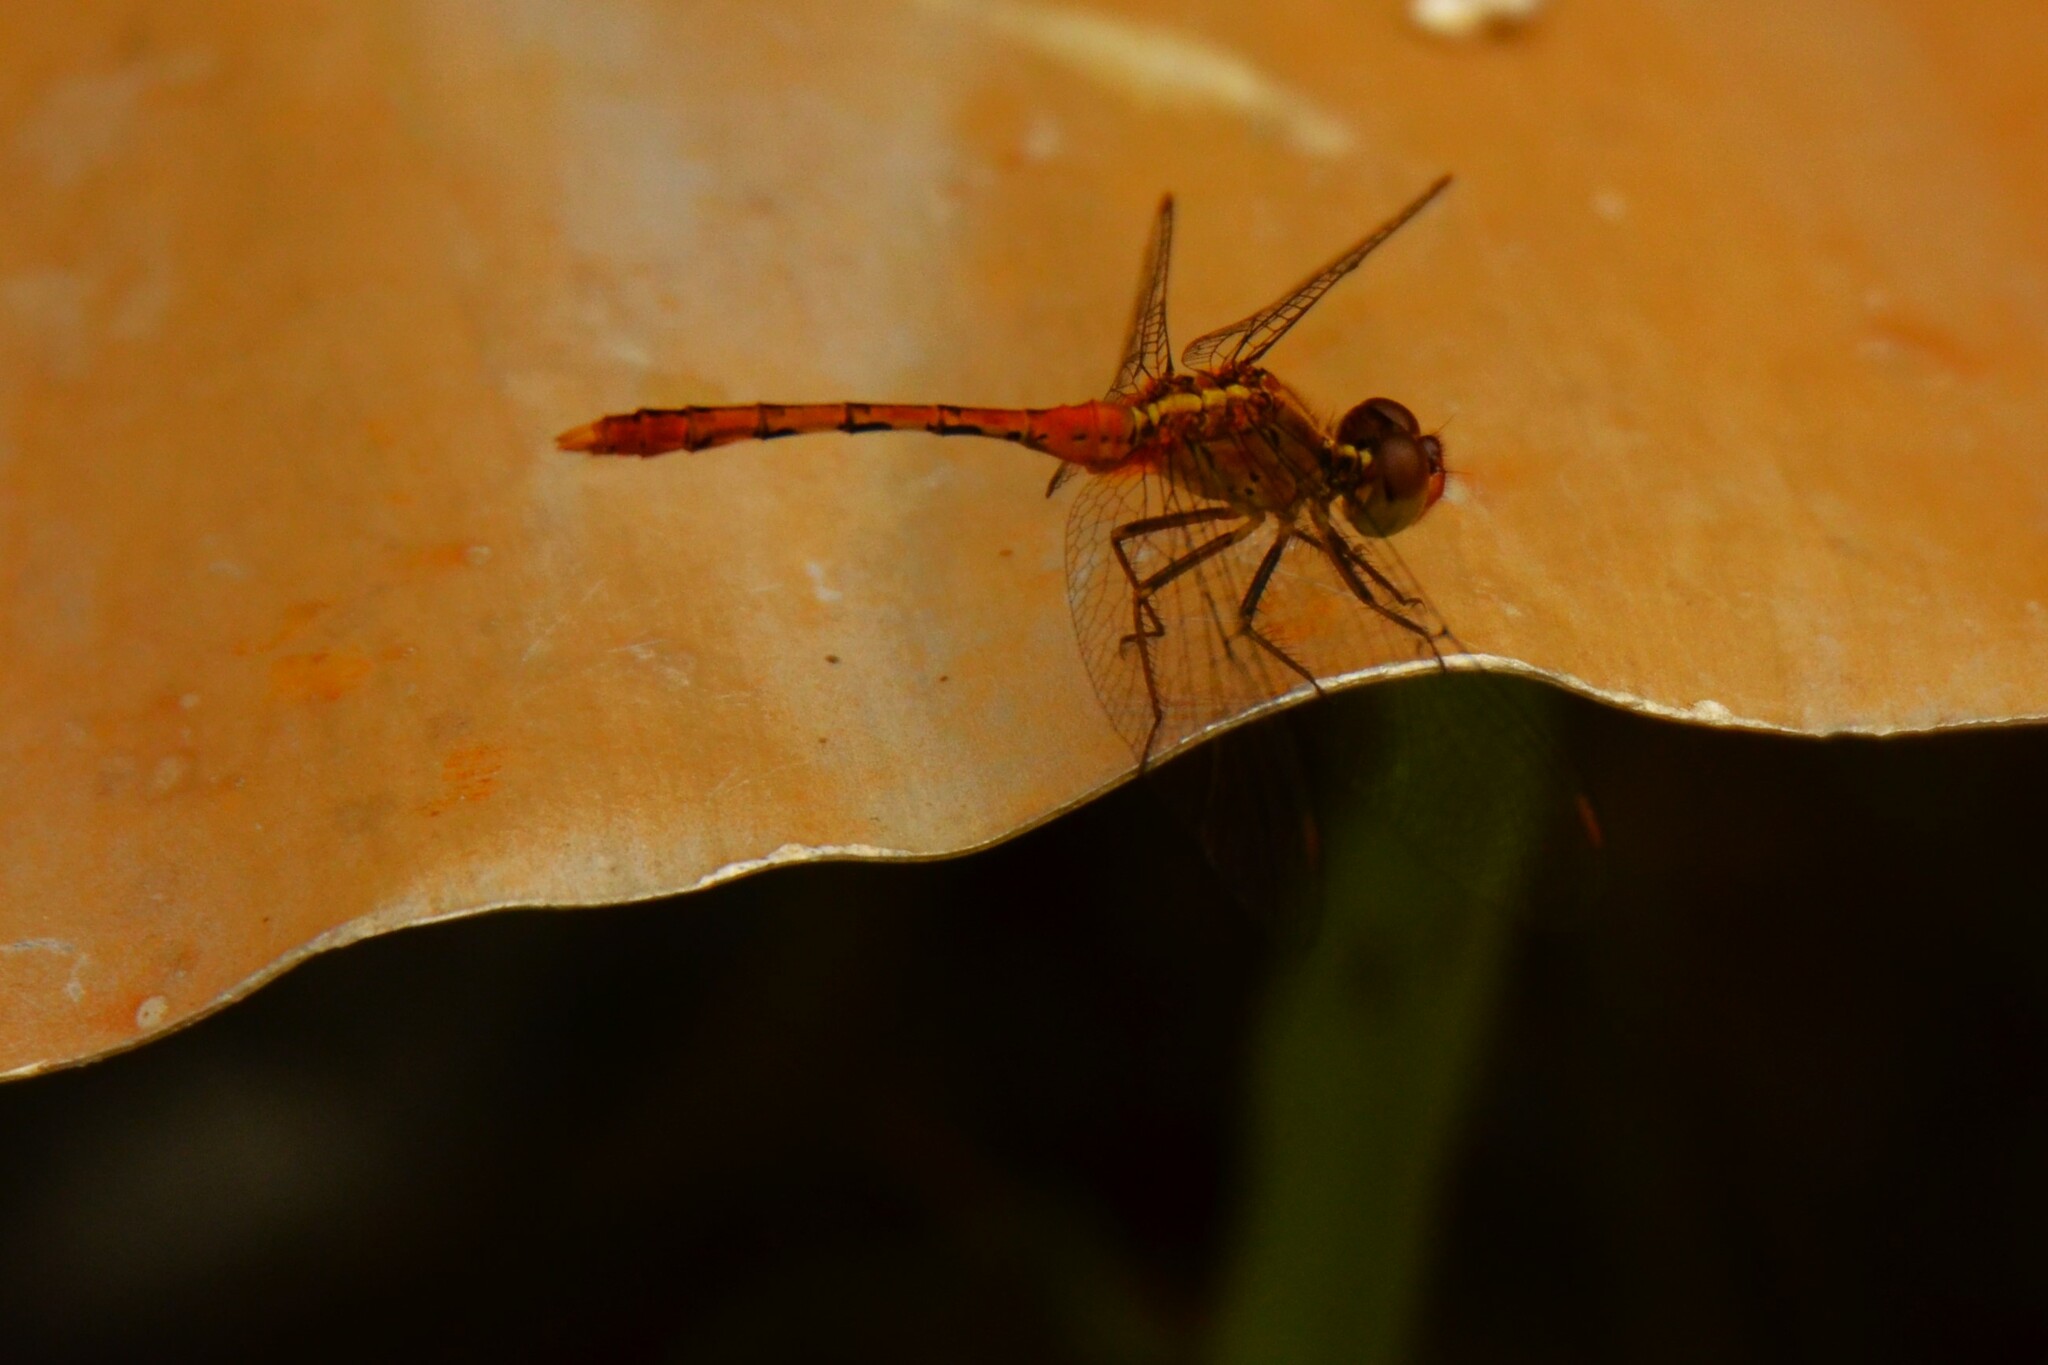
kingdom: Animalia
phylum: Arthropoda
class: Insecta
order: Odonata
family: Libellulidae
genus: Diplacodes
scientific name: Diplacodes bipunctata
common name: Red percher dragonfly
